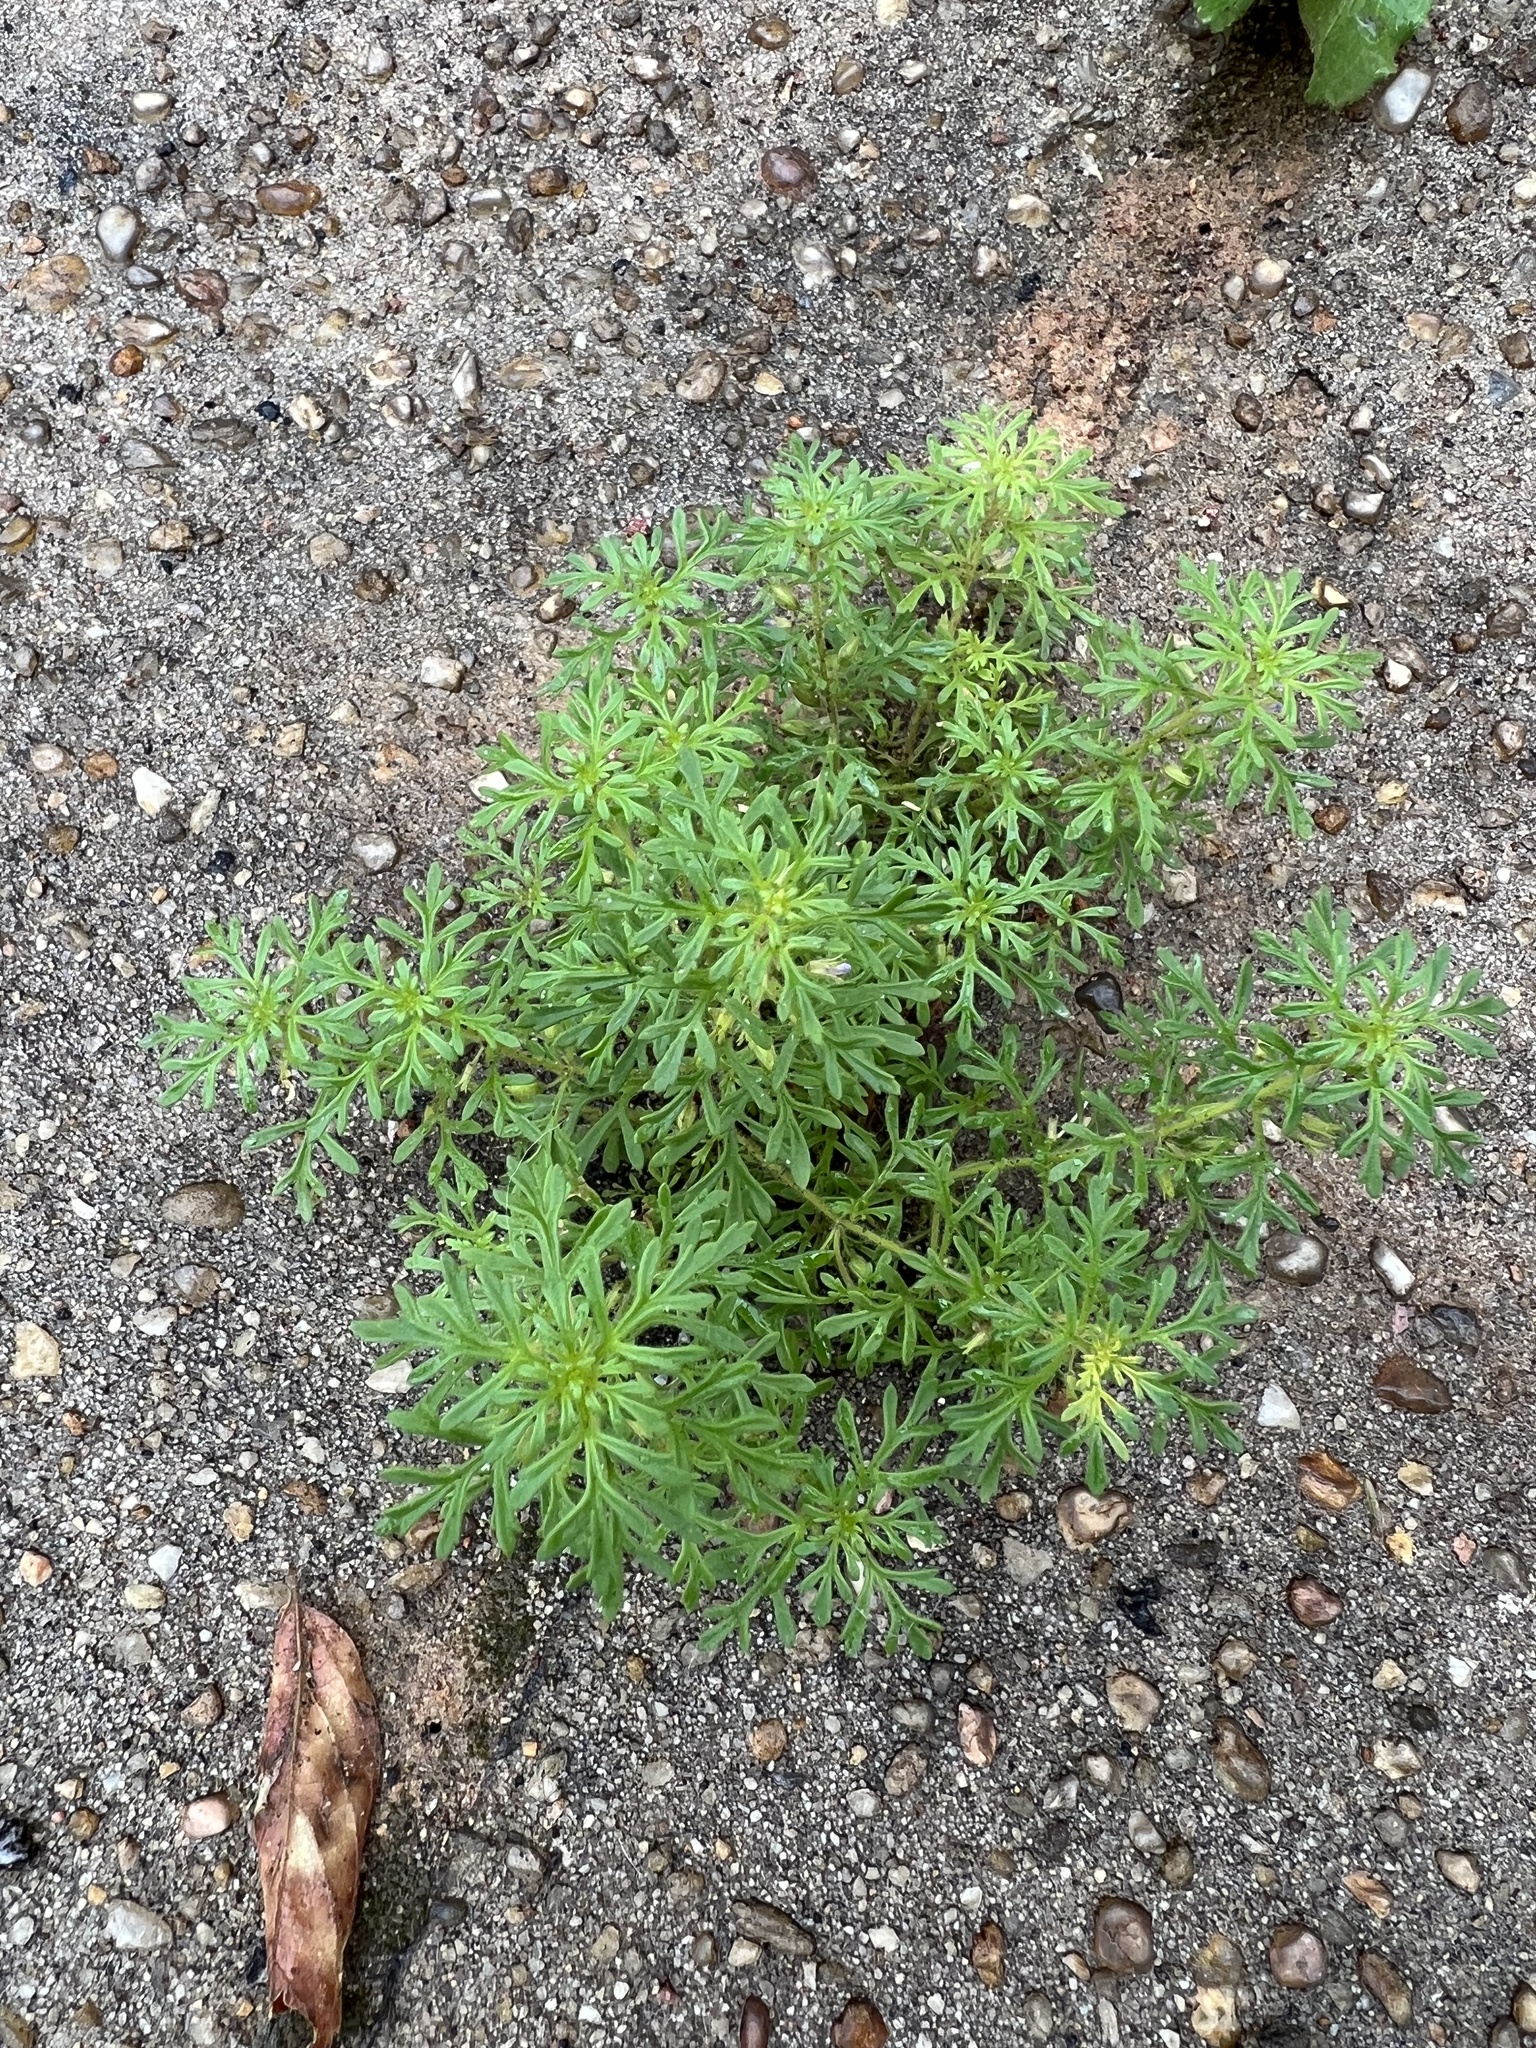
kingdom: Plantae
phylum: Tracheophyta
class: Magnoliopsida
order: Lamiales
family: Plantaginaceae
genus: Leucospora
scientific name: Leucospora multifida
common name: Narrow-leaf paleseed
